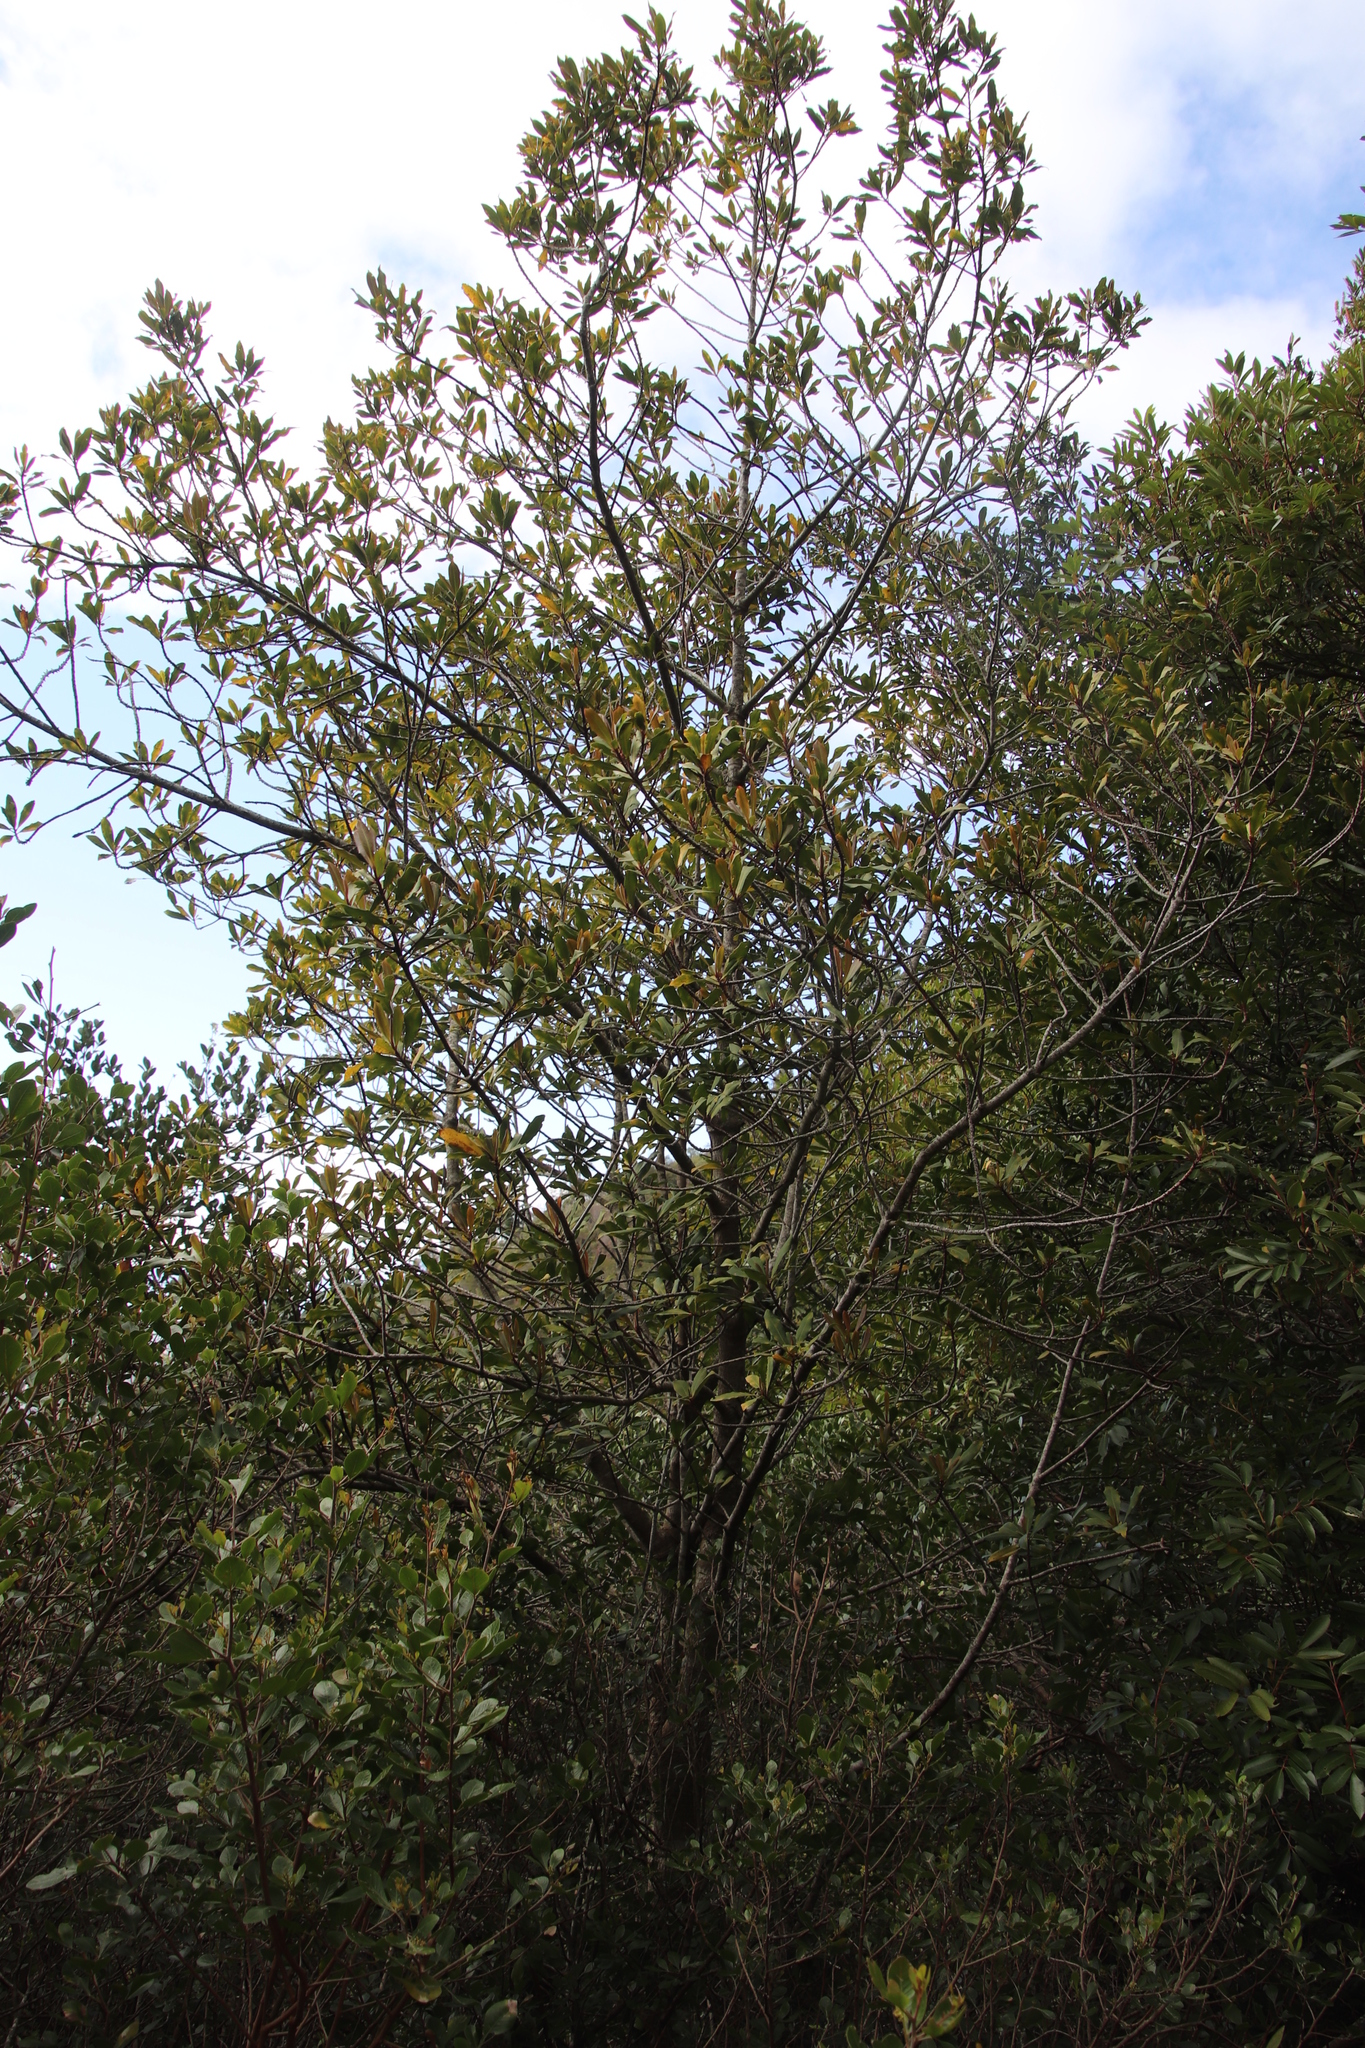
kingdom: Plantae
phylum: Tracheophyta
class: Magnoliopsida
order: Ericales
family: Primulaceae
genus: Myrsine
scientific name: Myrsine melanophloeos
